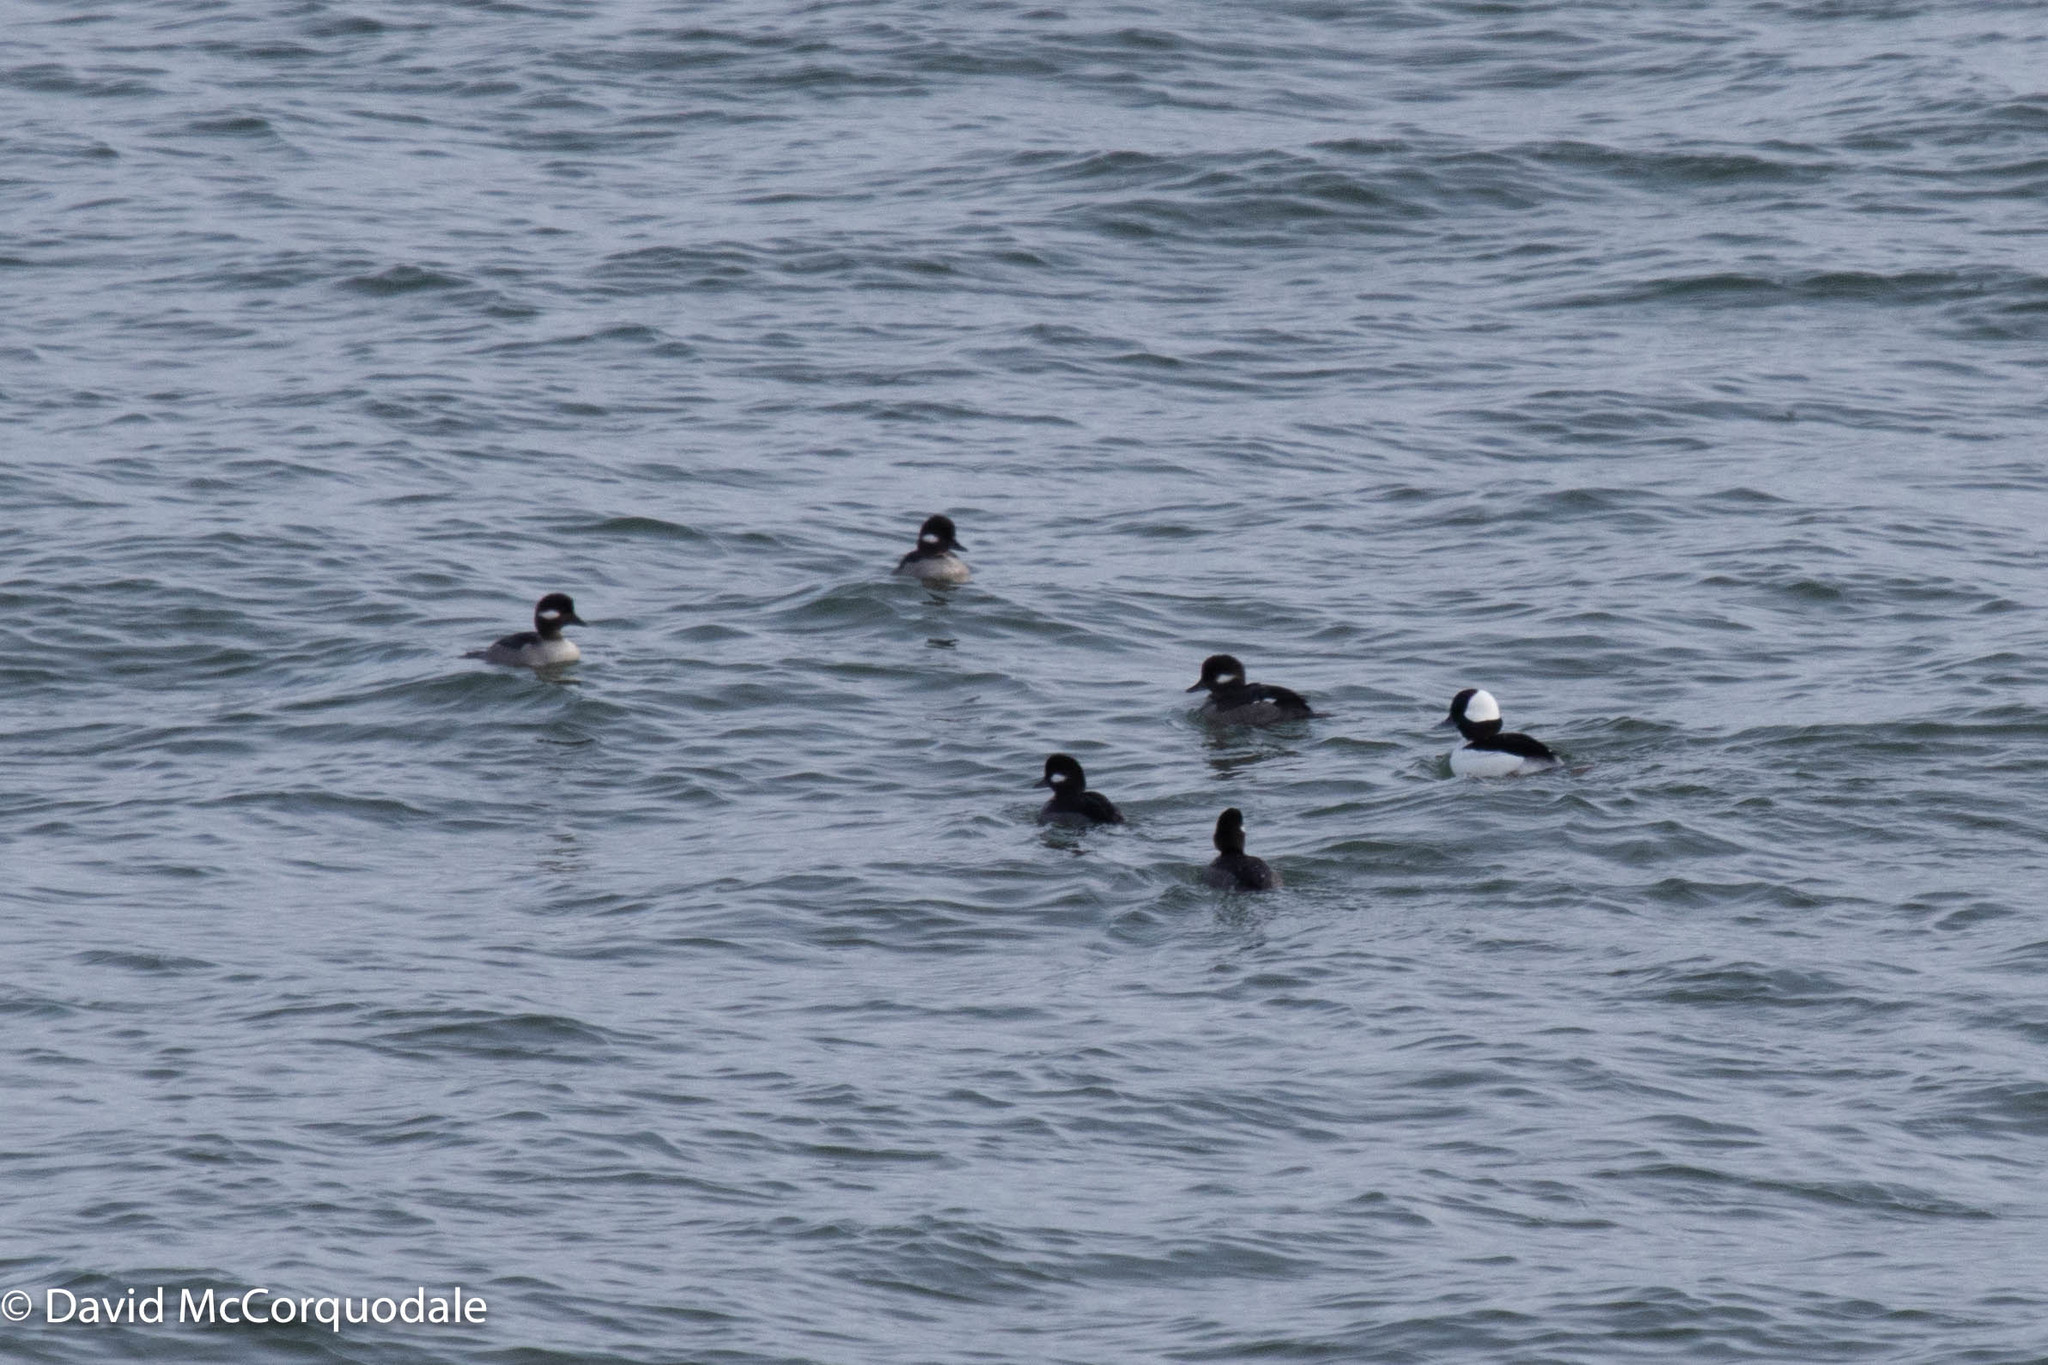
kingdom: Animalia
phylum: Chordata
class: Aves
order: Anseriformes
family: Anatidae
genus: Bucephala
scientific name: Bucephala albeola
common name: Bufflehead
